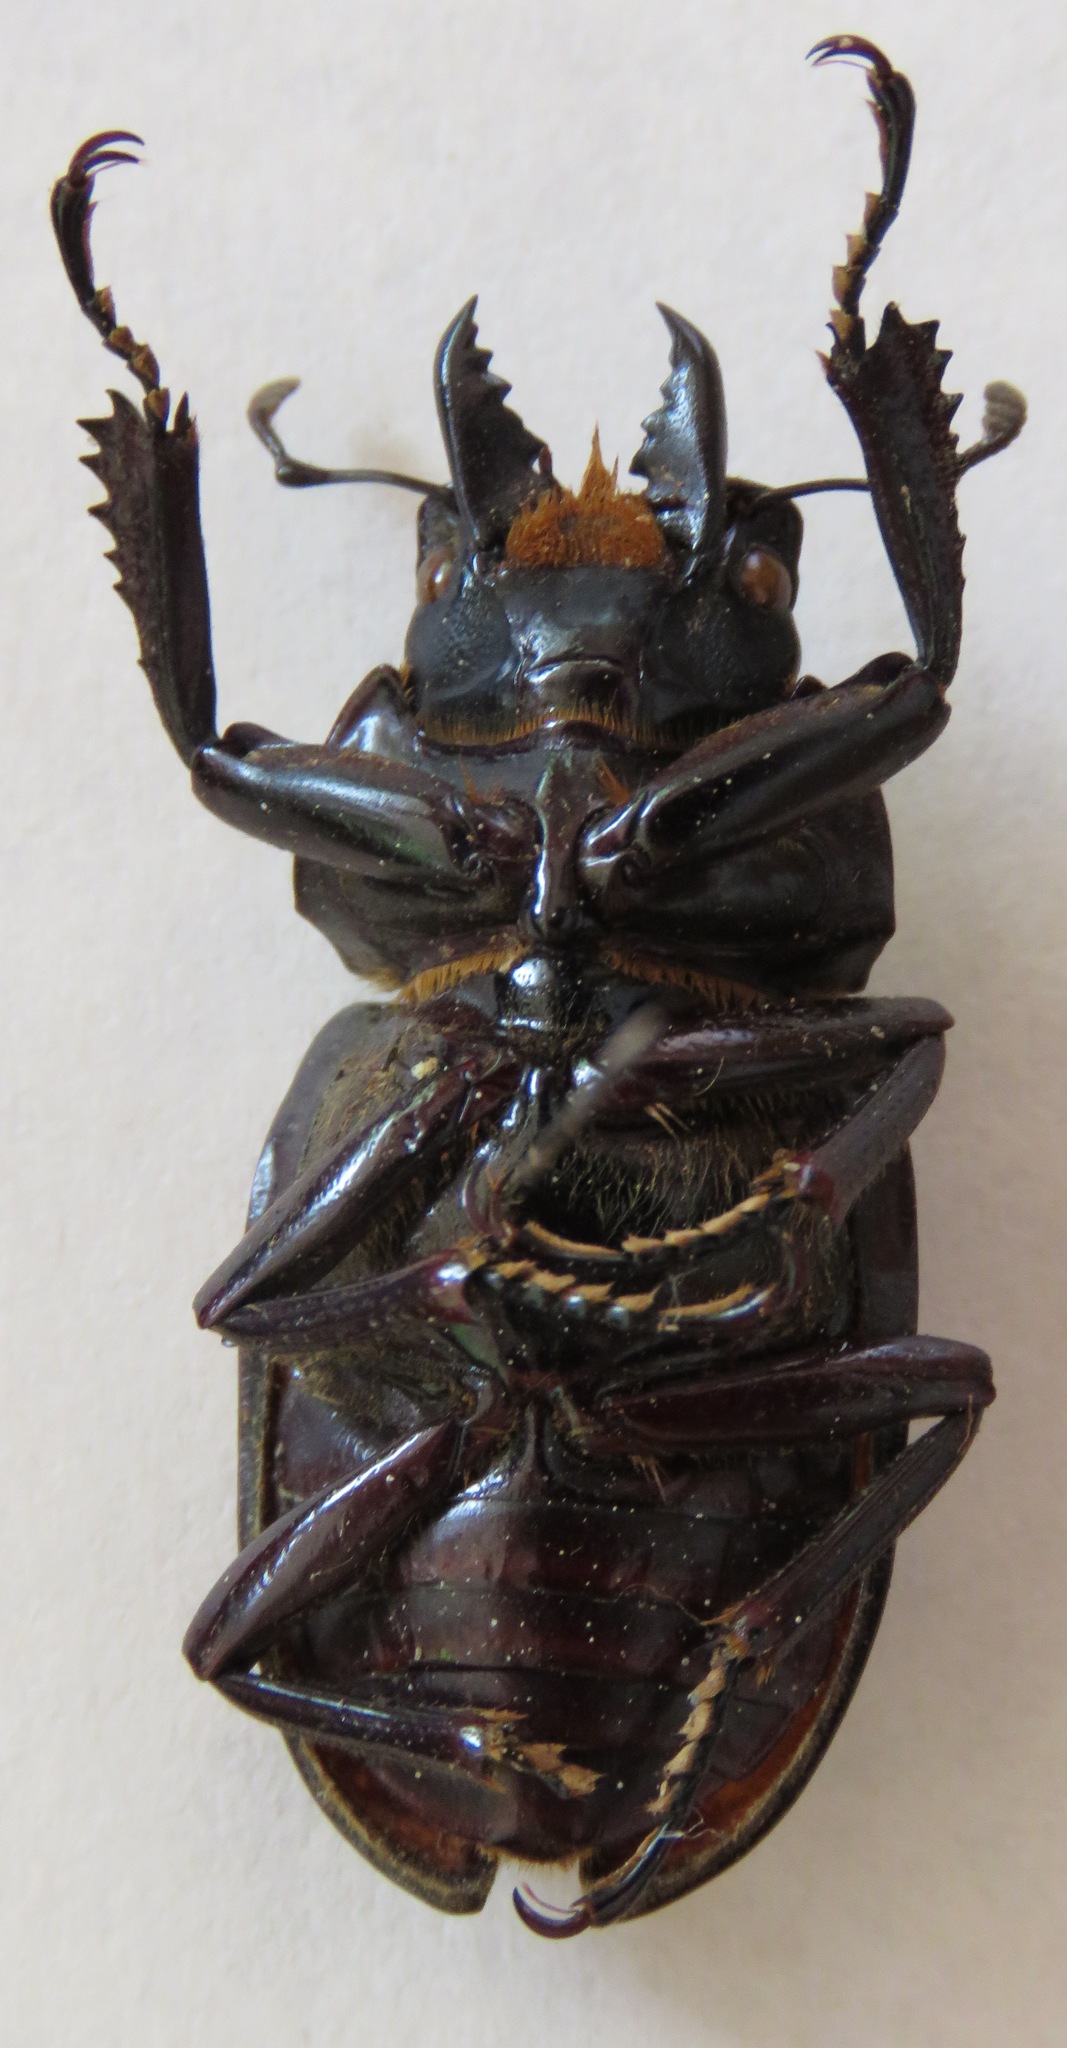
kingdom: Animalia
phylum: Arthropoda
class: Insecta
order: Coleoptera
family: Lucanidae
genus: Neolucanus
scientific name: Neolucanus castanopterus
